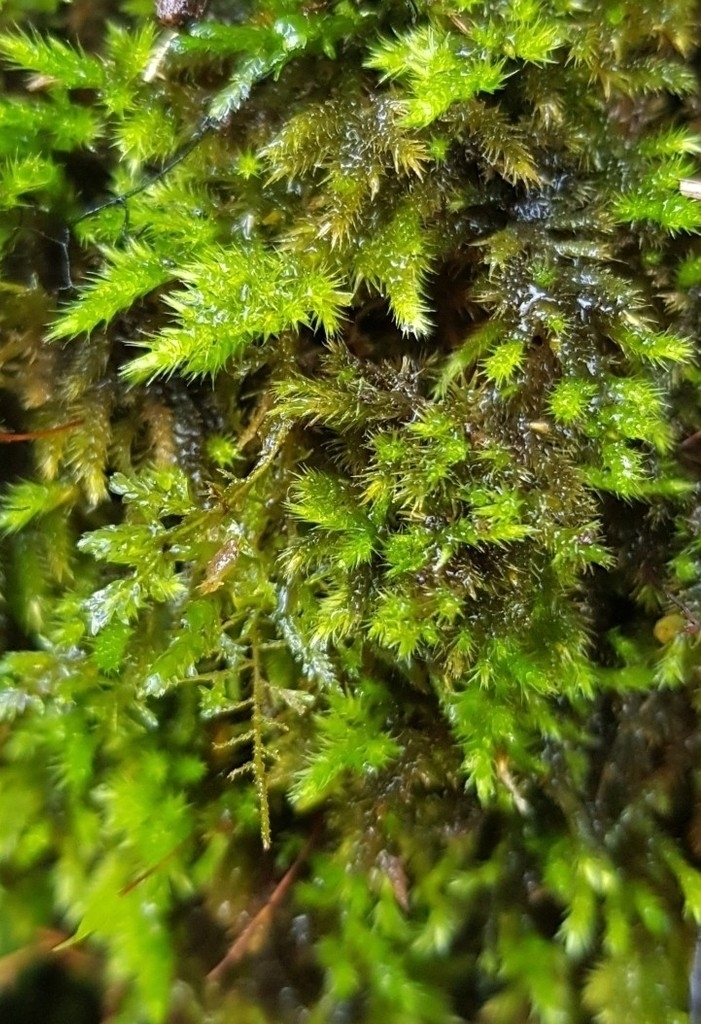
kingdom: Plantae
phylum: Bryophyta
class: Bryopsida
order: Hypnales
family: Brachytheciaceae
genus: Homalothecium
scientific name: Homalothecium sericeum
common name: Silky wall feather-moss
